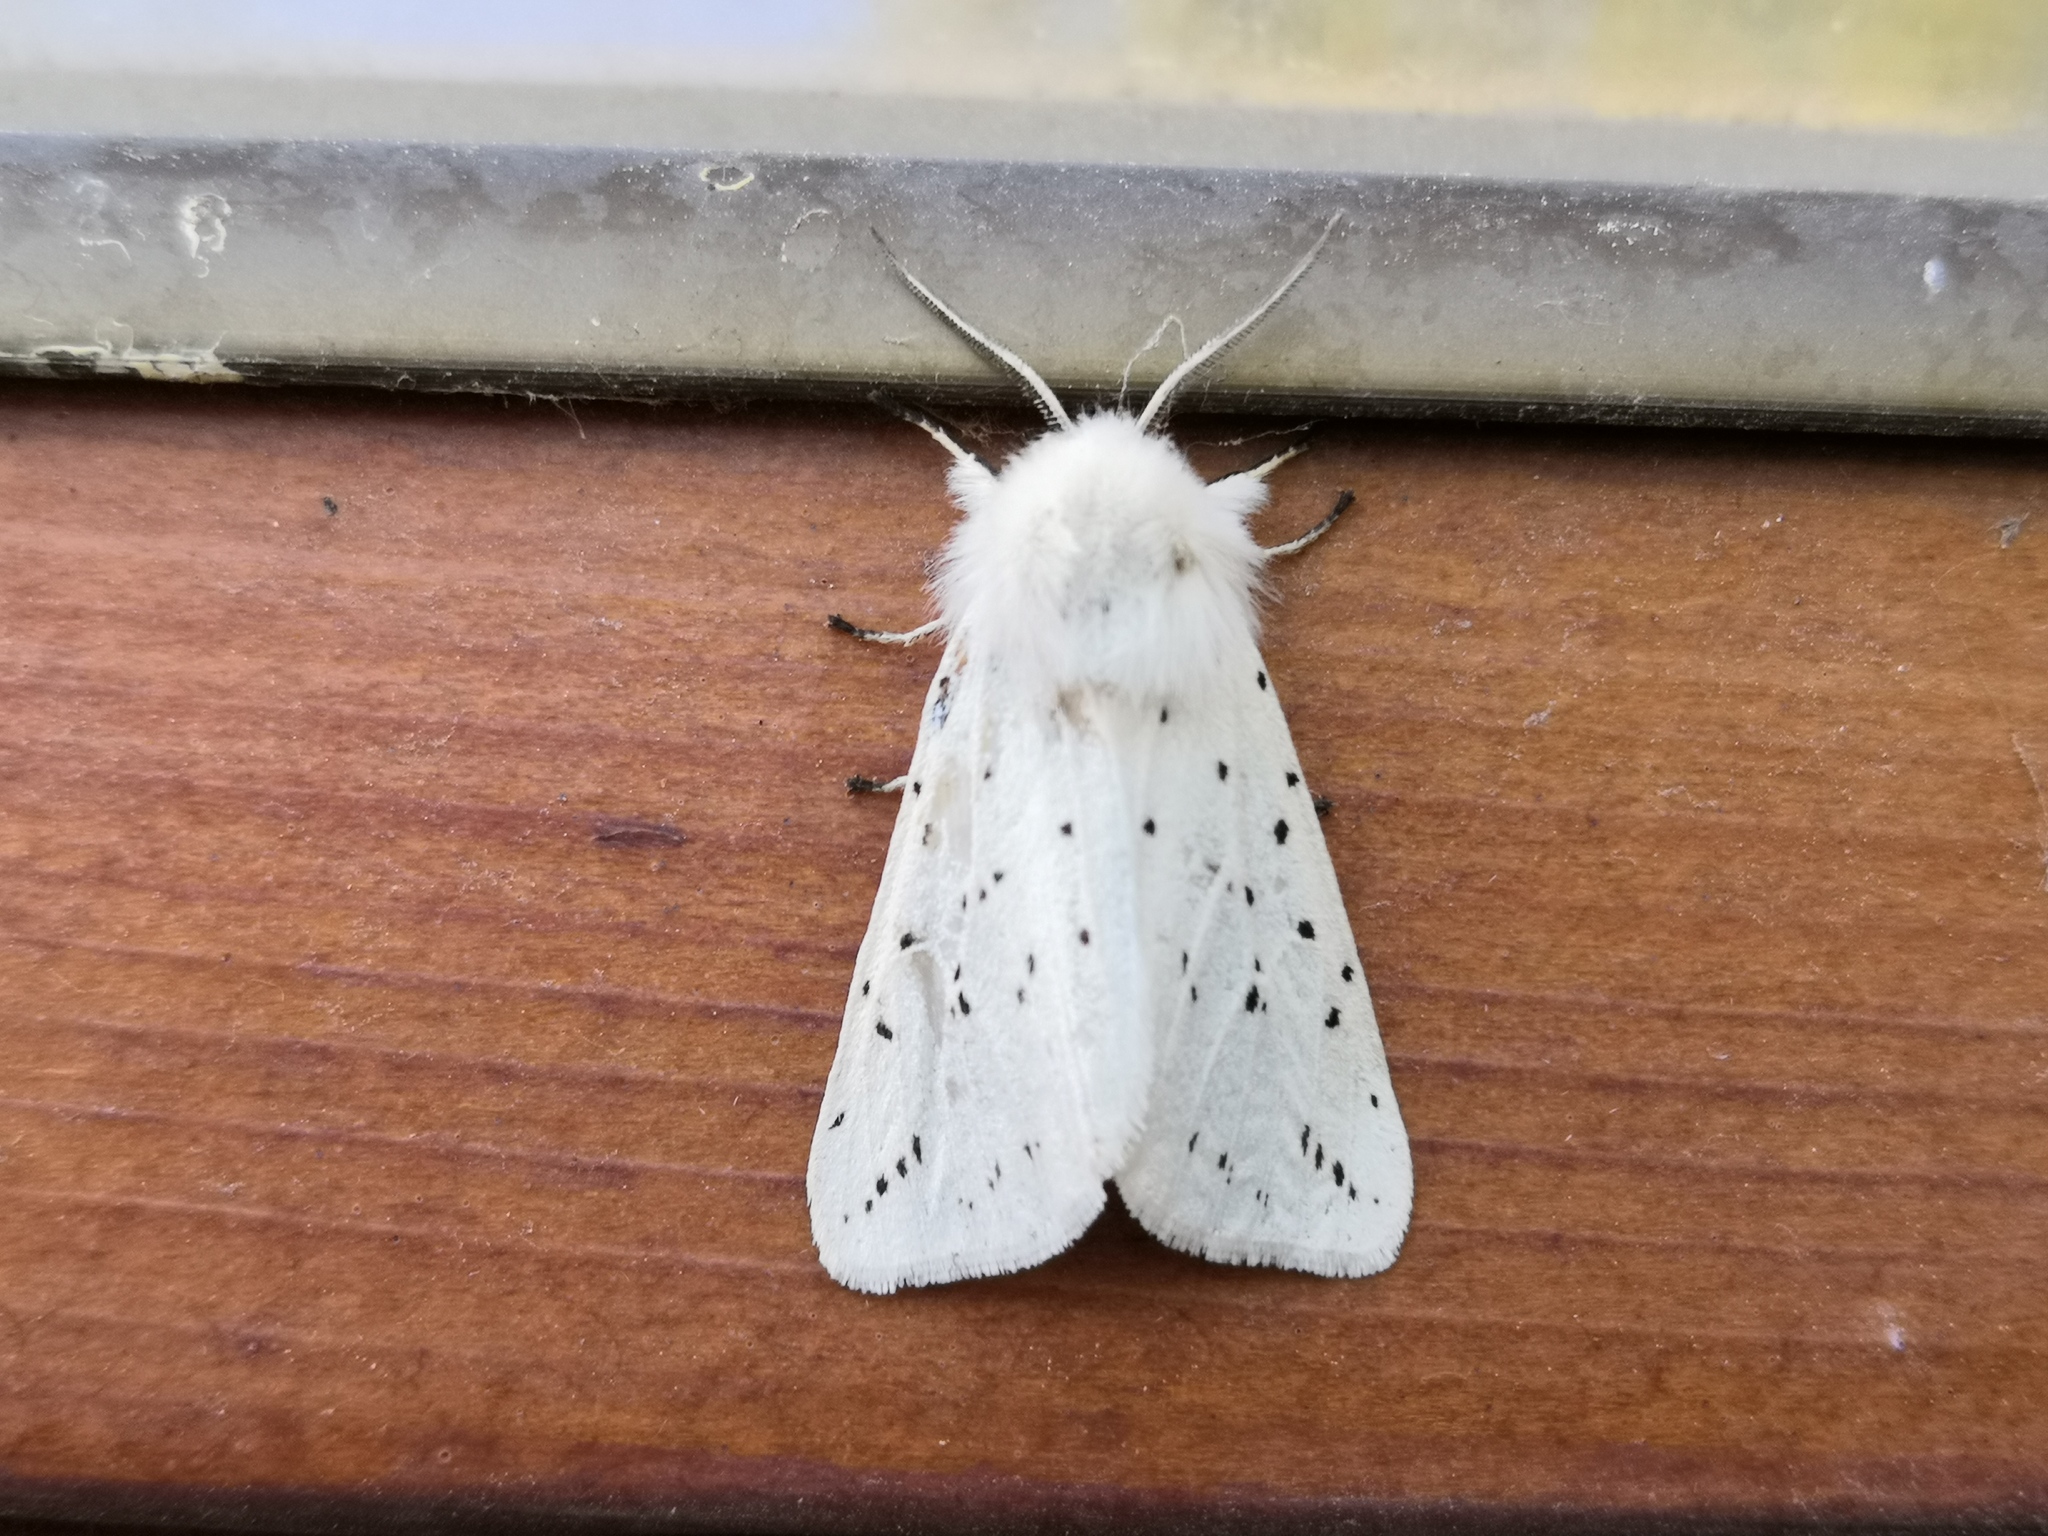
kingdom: Animalia
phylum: Arthropoda
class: Insecta
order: Lepidoptera
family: Erebidae
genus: Spilosoma
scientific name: Spilosoma lubricipeda
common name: White ermine
